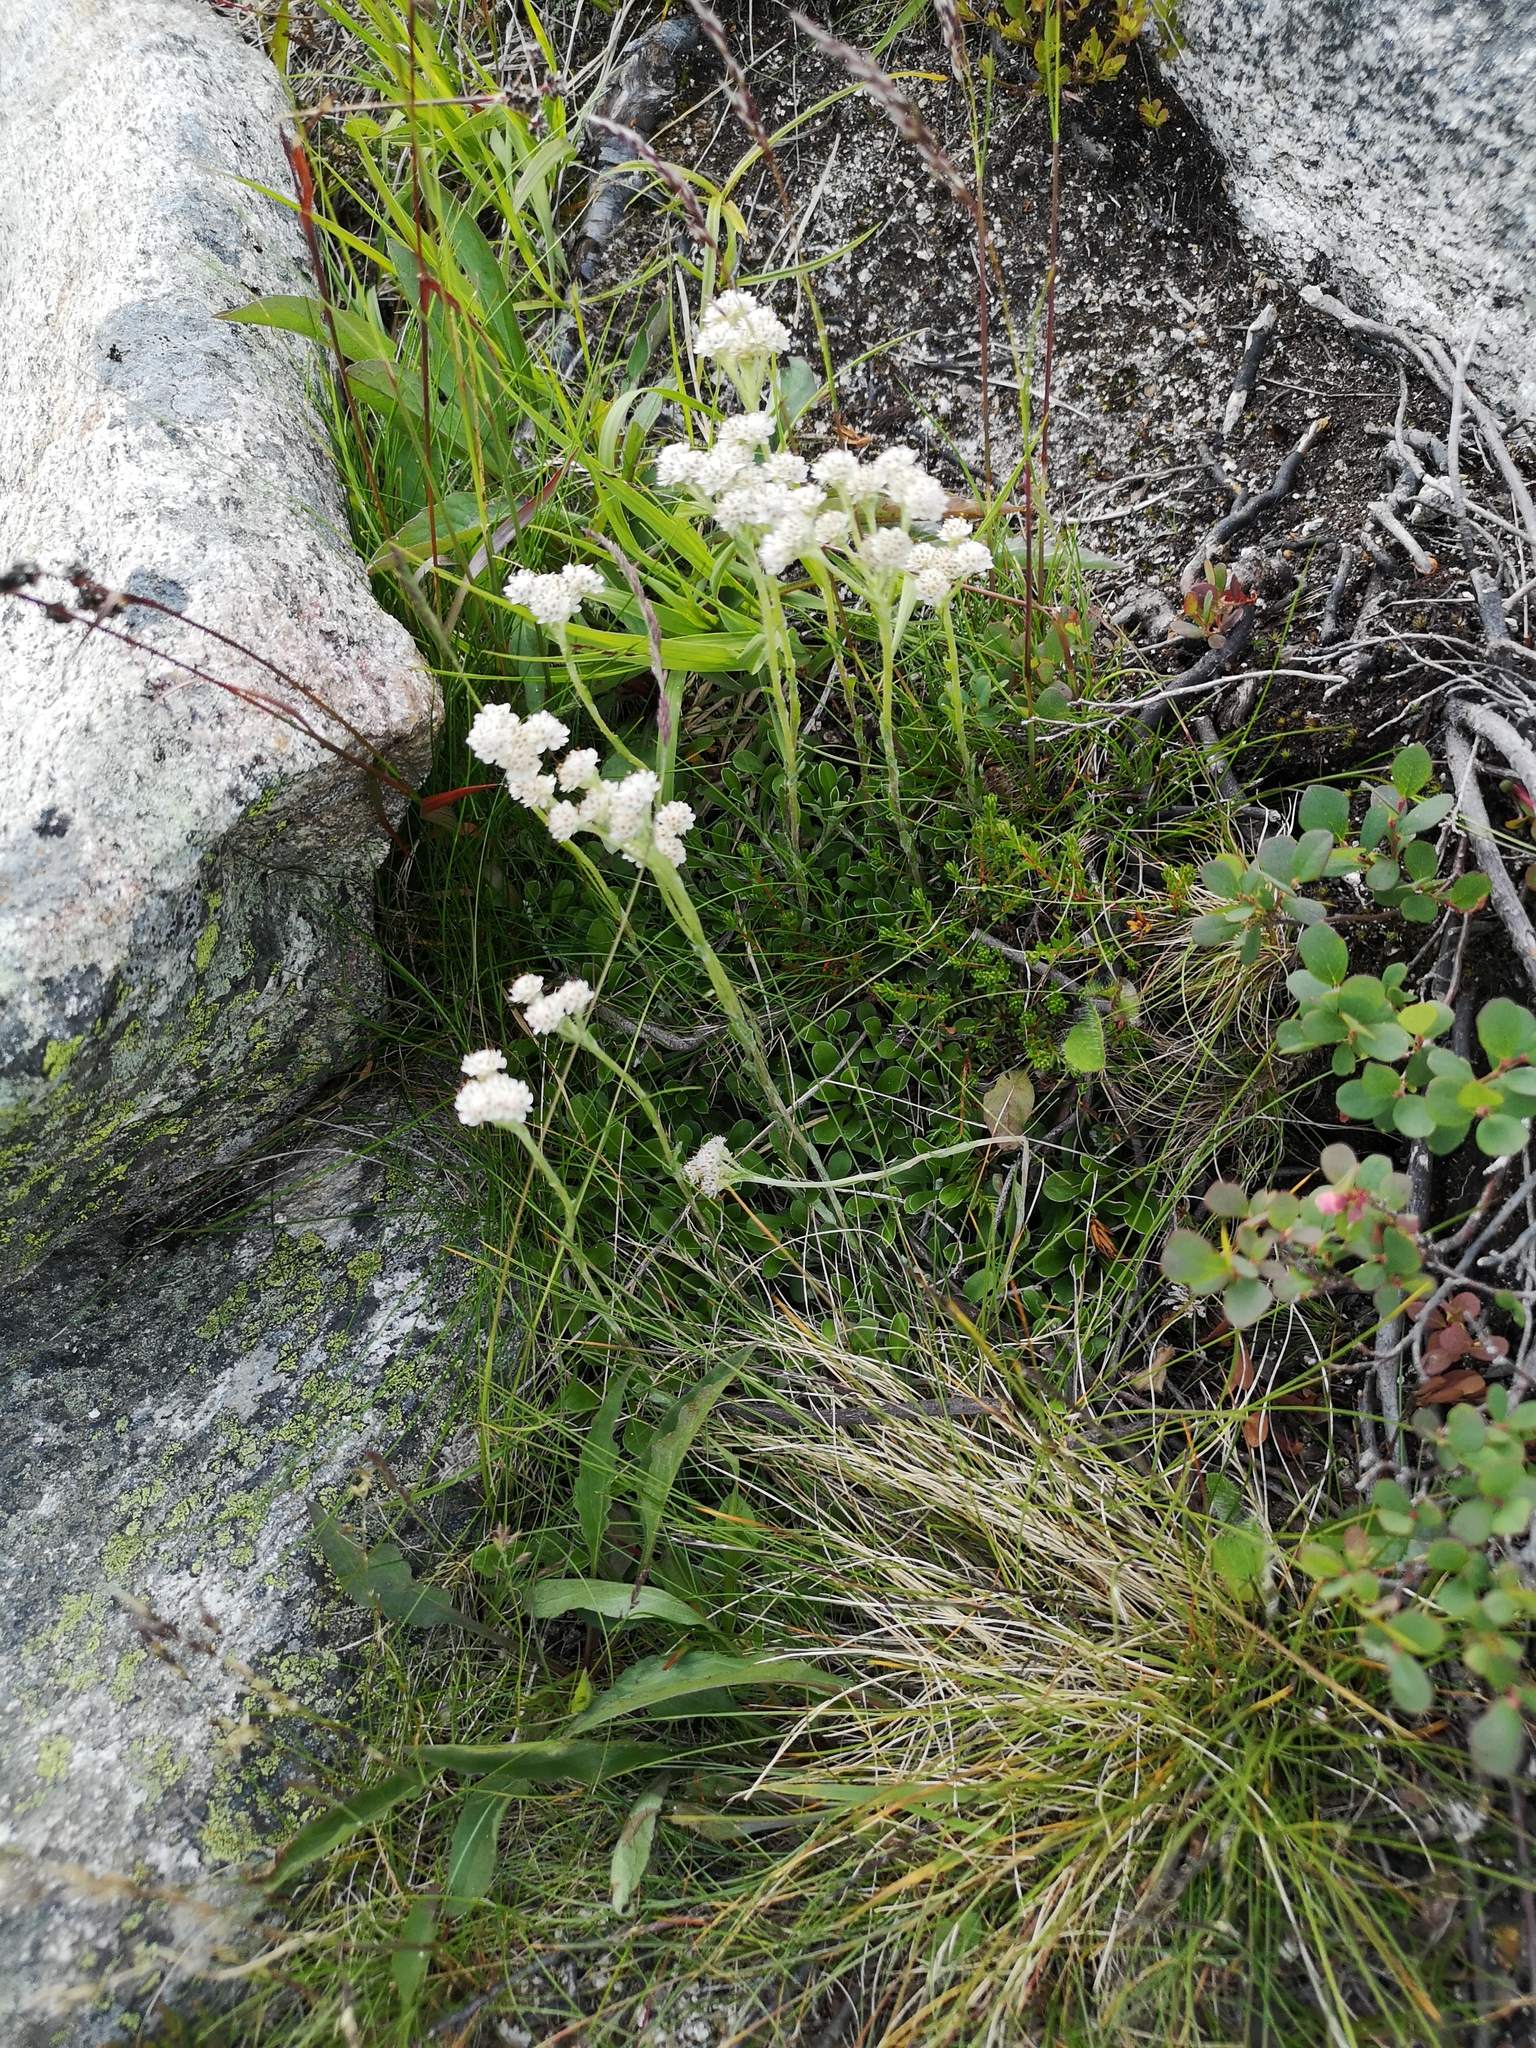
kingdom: Plantae
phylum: Tracheophyta
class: Magnoliopsida
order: Asterales
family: Asteraceae
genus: Antennaria
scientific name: Antennaria dioica
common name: Mountain everlasting
